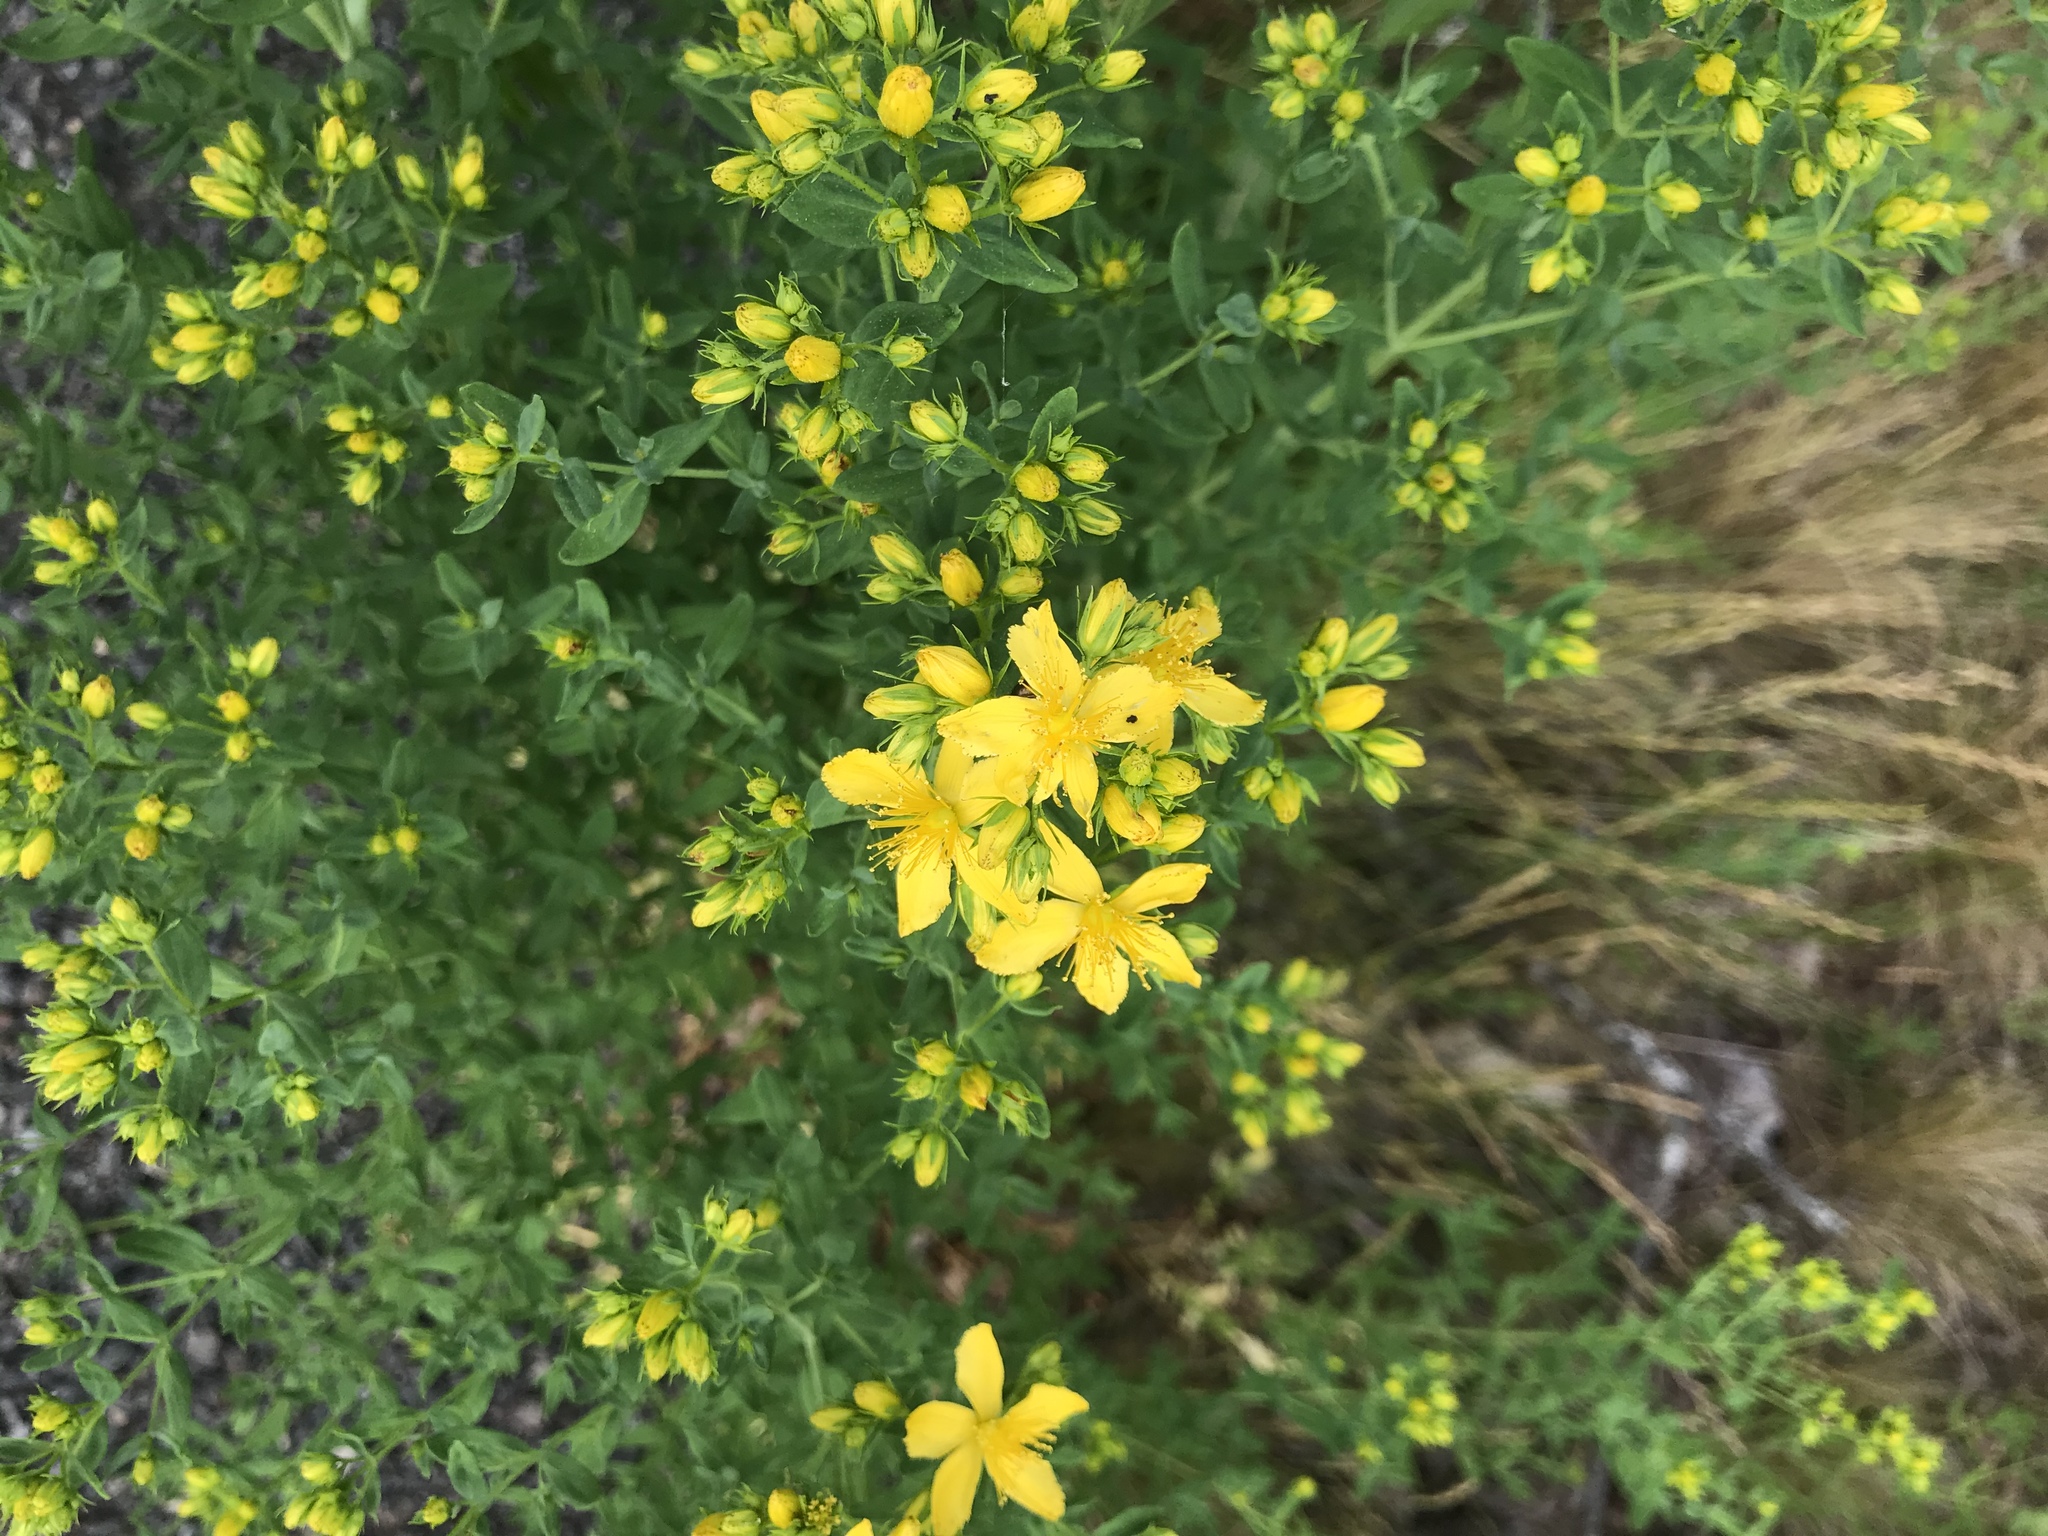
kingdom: Plantae
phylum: Tracheophyta
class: Magnoliopsida
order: Malpighiales
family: Hypericaceae
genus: Hypericum
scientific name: Hypericum perforatum
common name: Common st. johnswort
